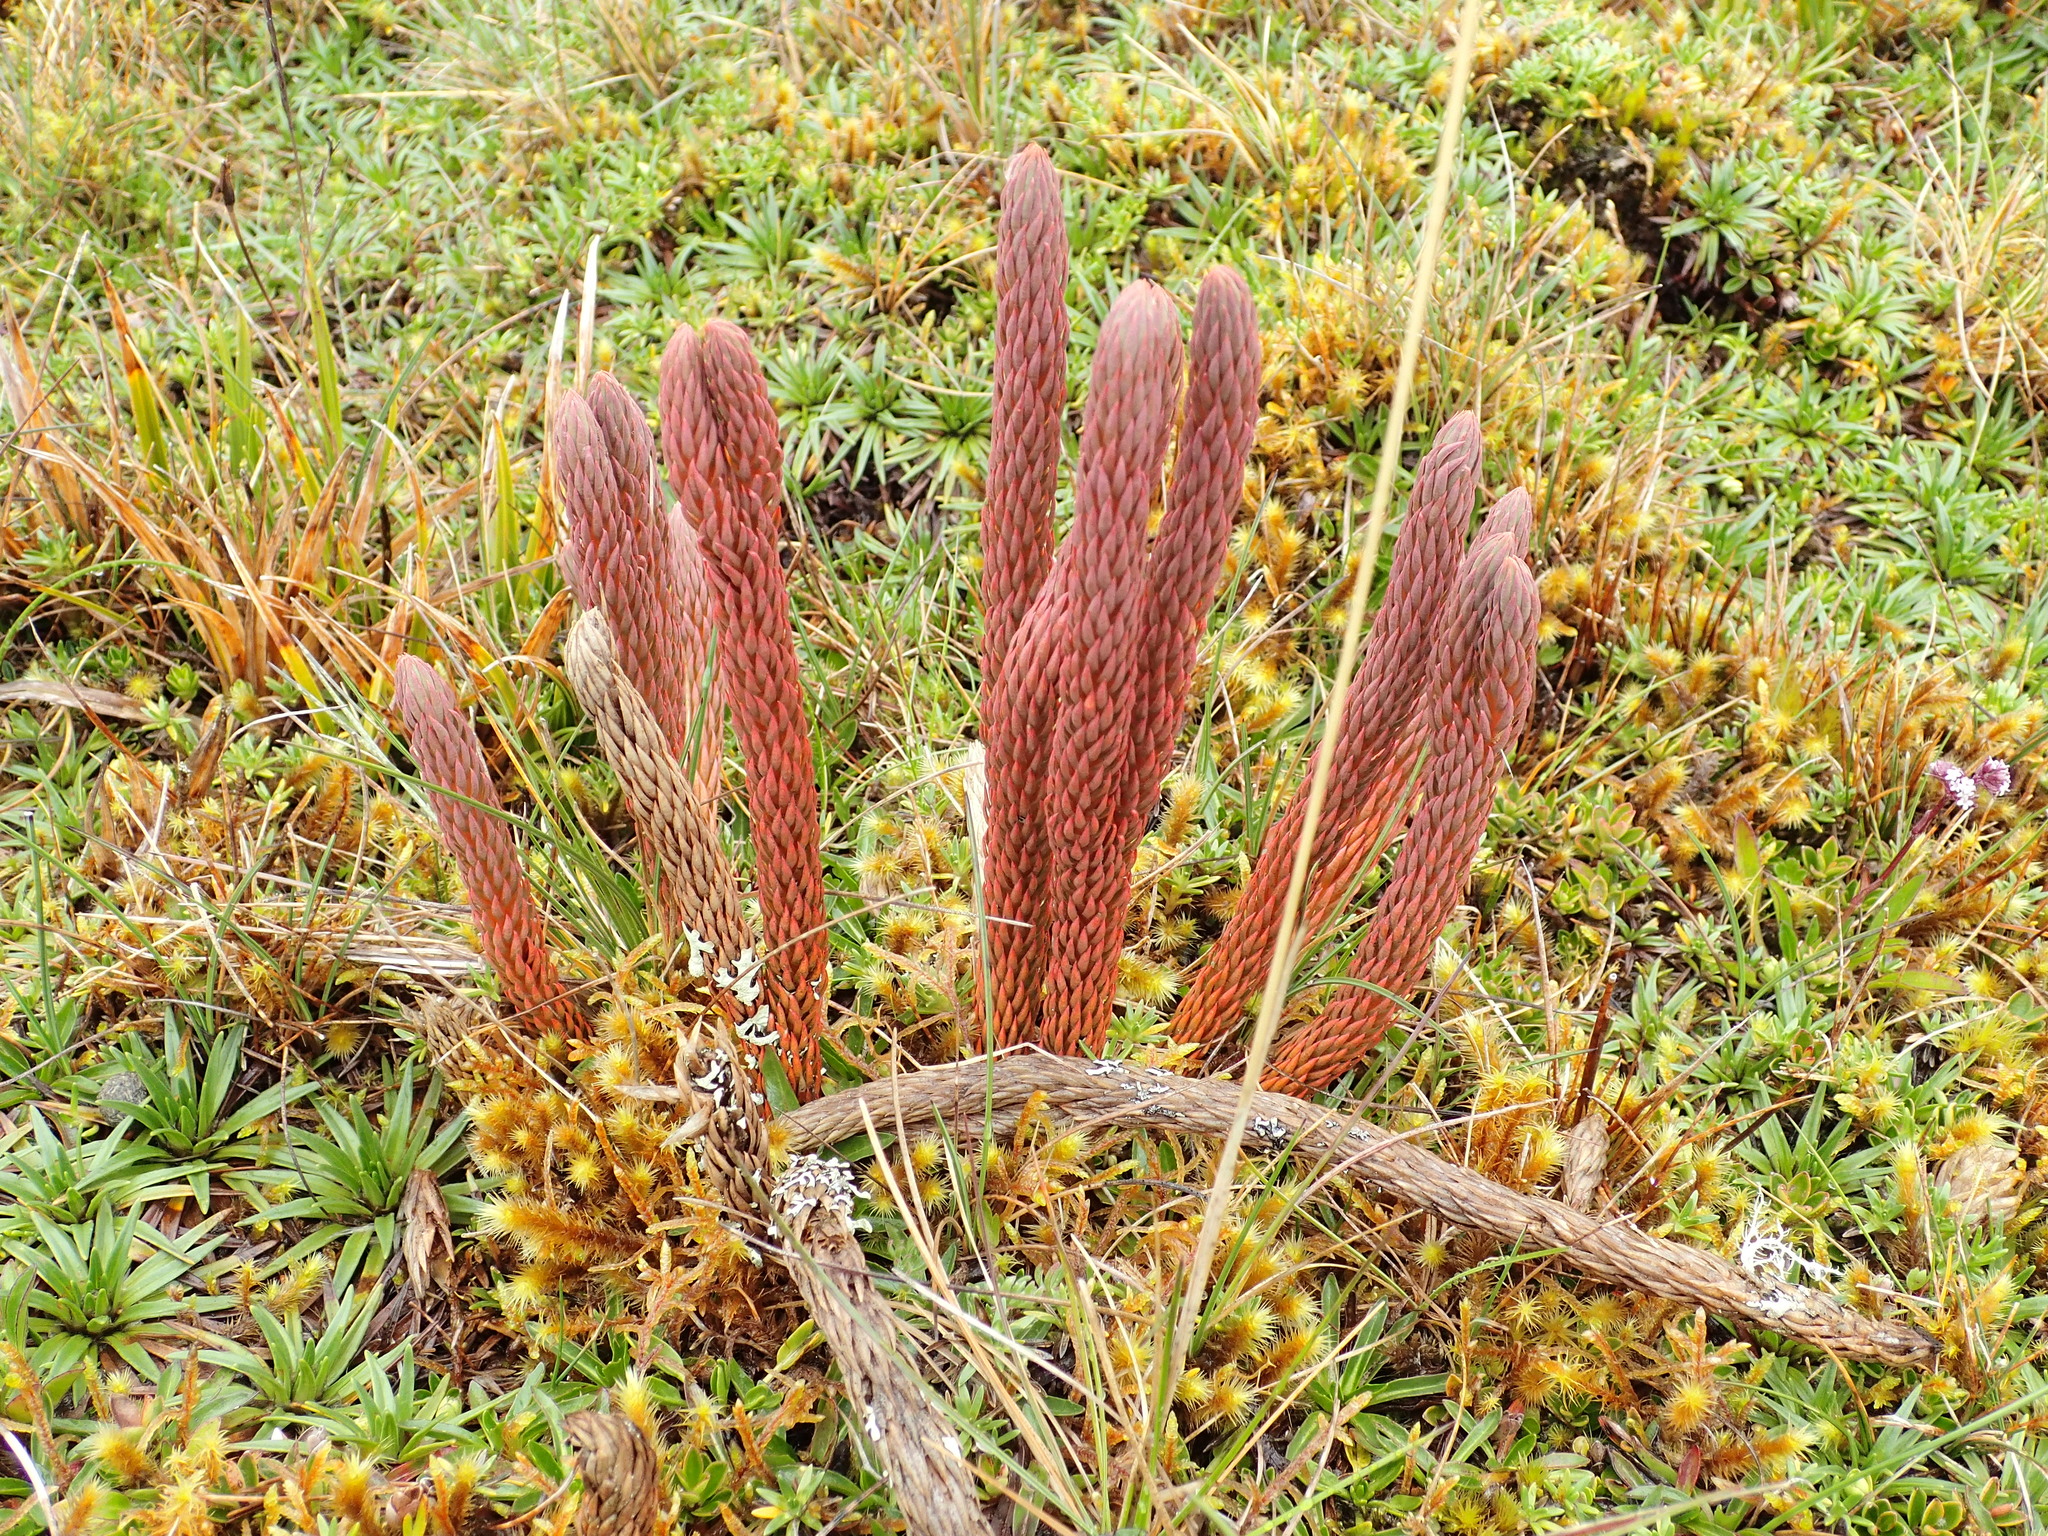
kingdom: Plantae
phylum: Tracheophyta
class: Lycopodiopsida
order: Lycopodiales
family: Lycopodiaceae
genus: Phlegmariurus
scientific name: Phlegmariurus crassus
